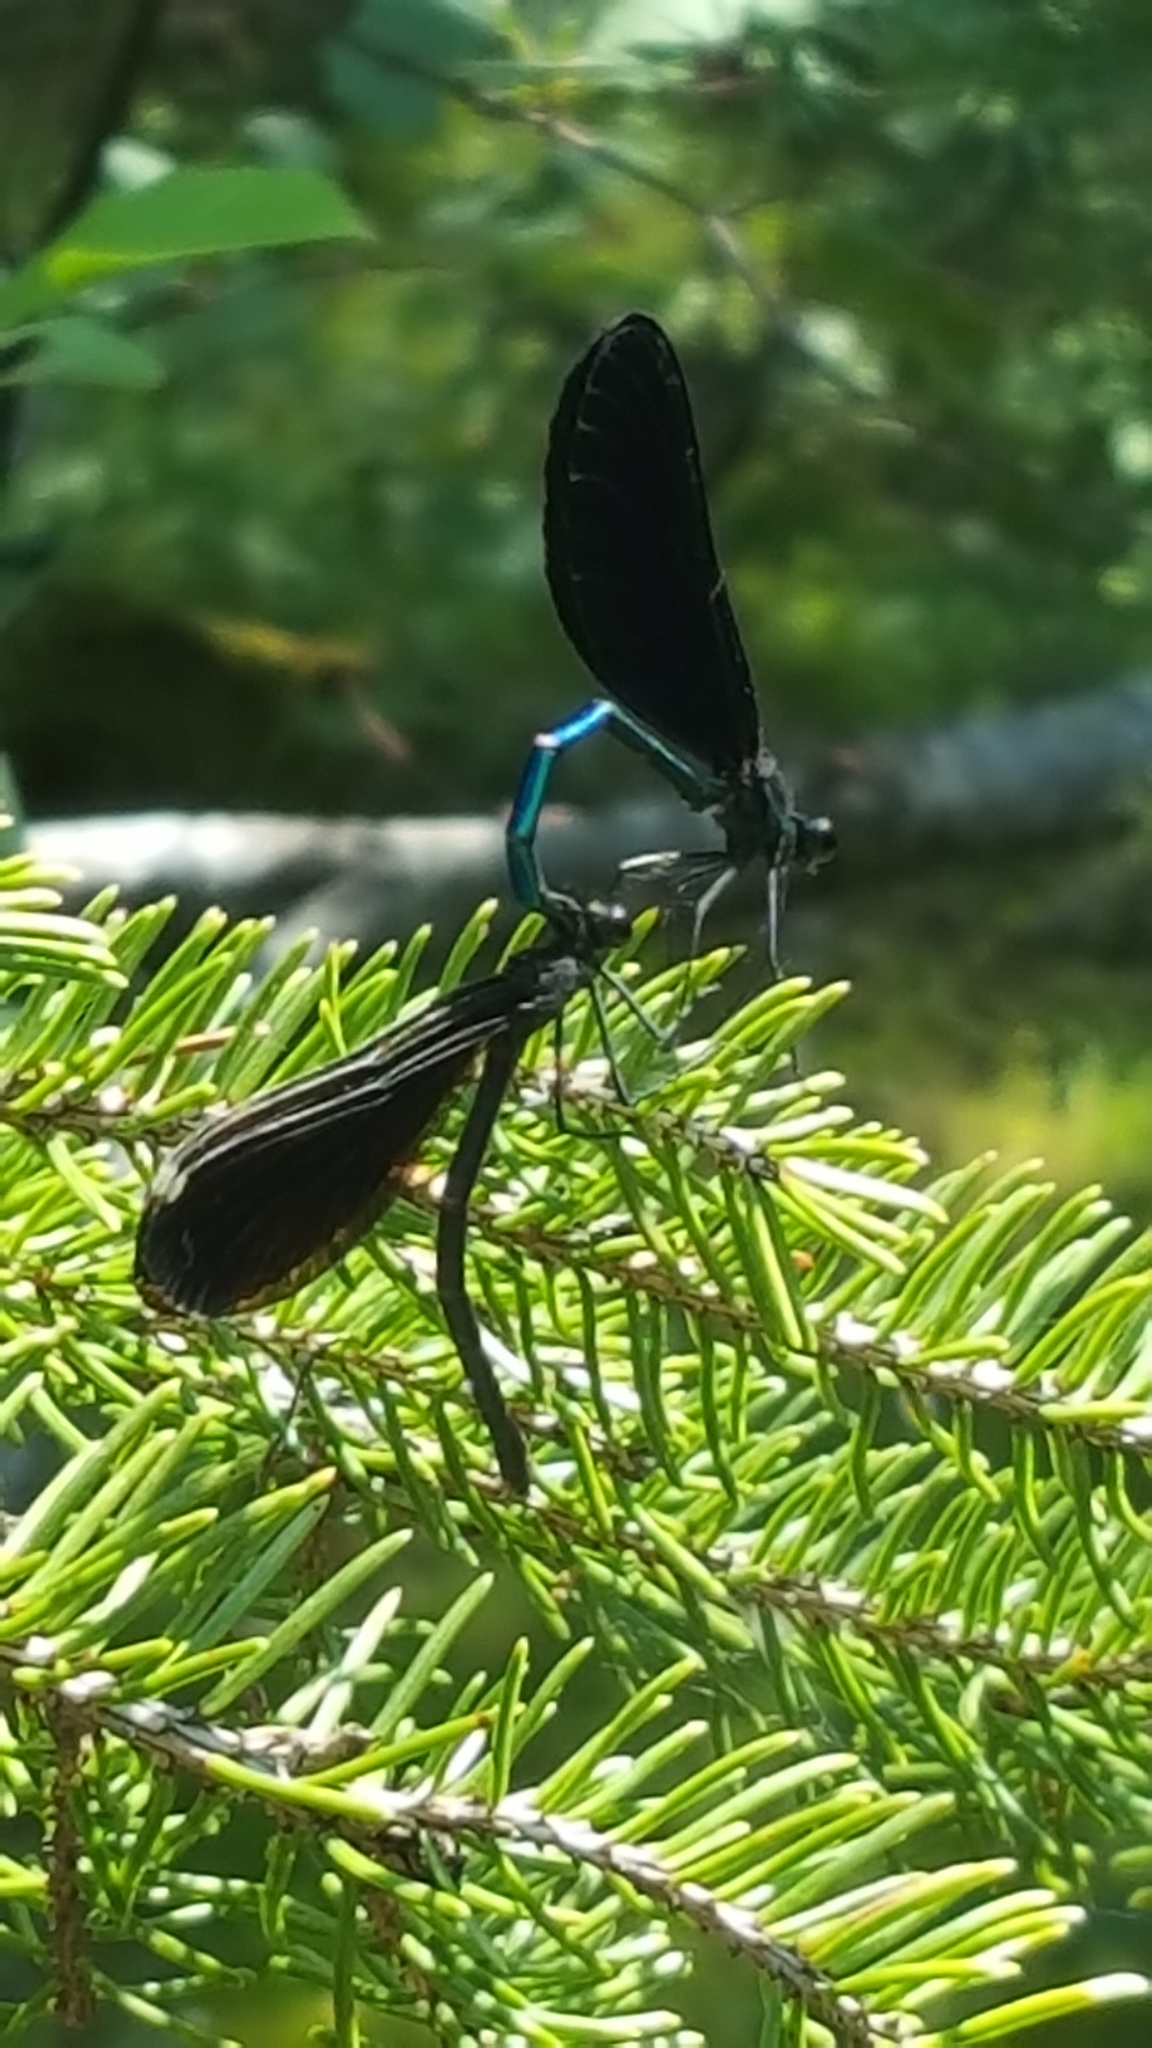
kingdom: Animalia
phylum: Arthropoda
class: Insecta
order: Odonata
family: Calopterygidae
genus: Calopteryx
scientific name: Calopteryx maculata
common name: Ebony jewelwing
